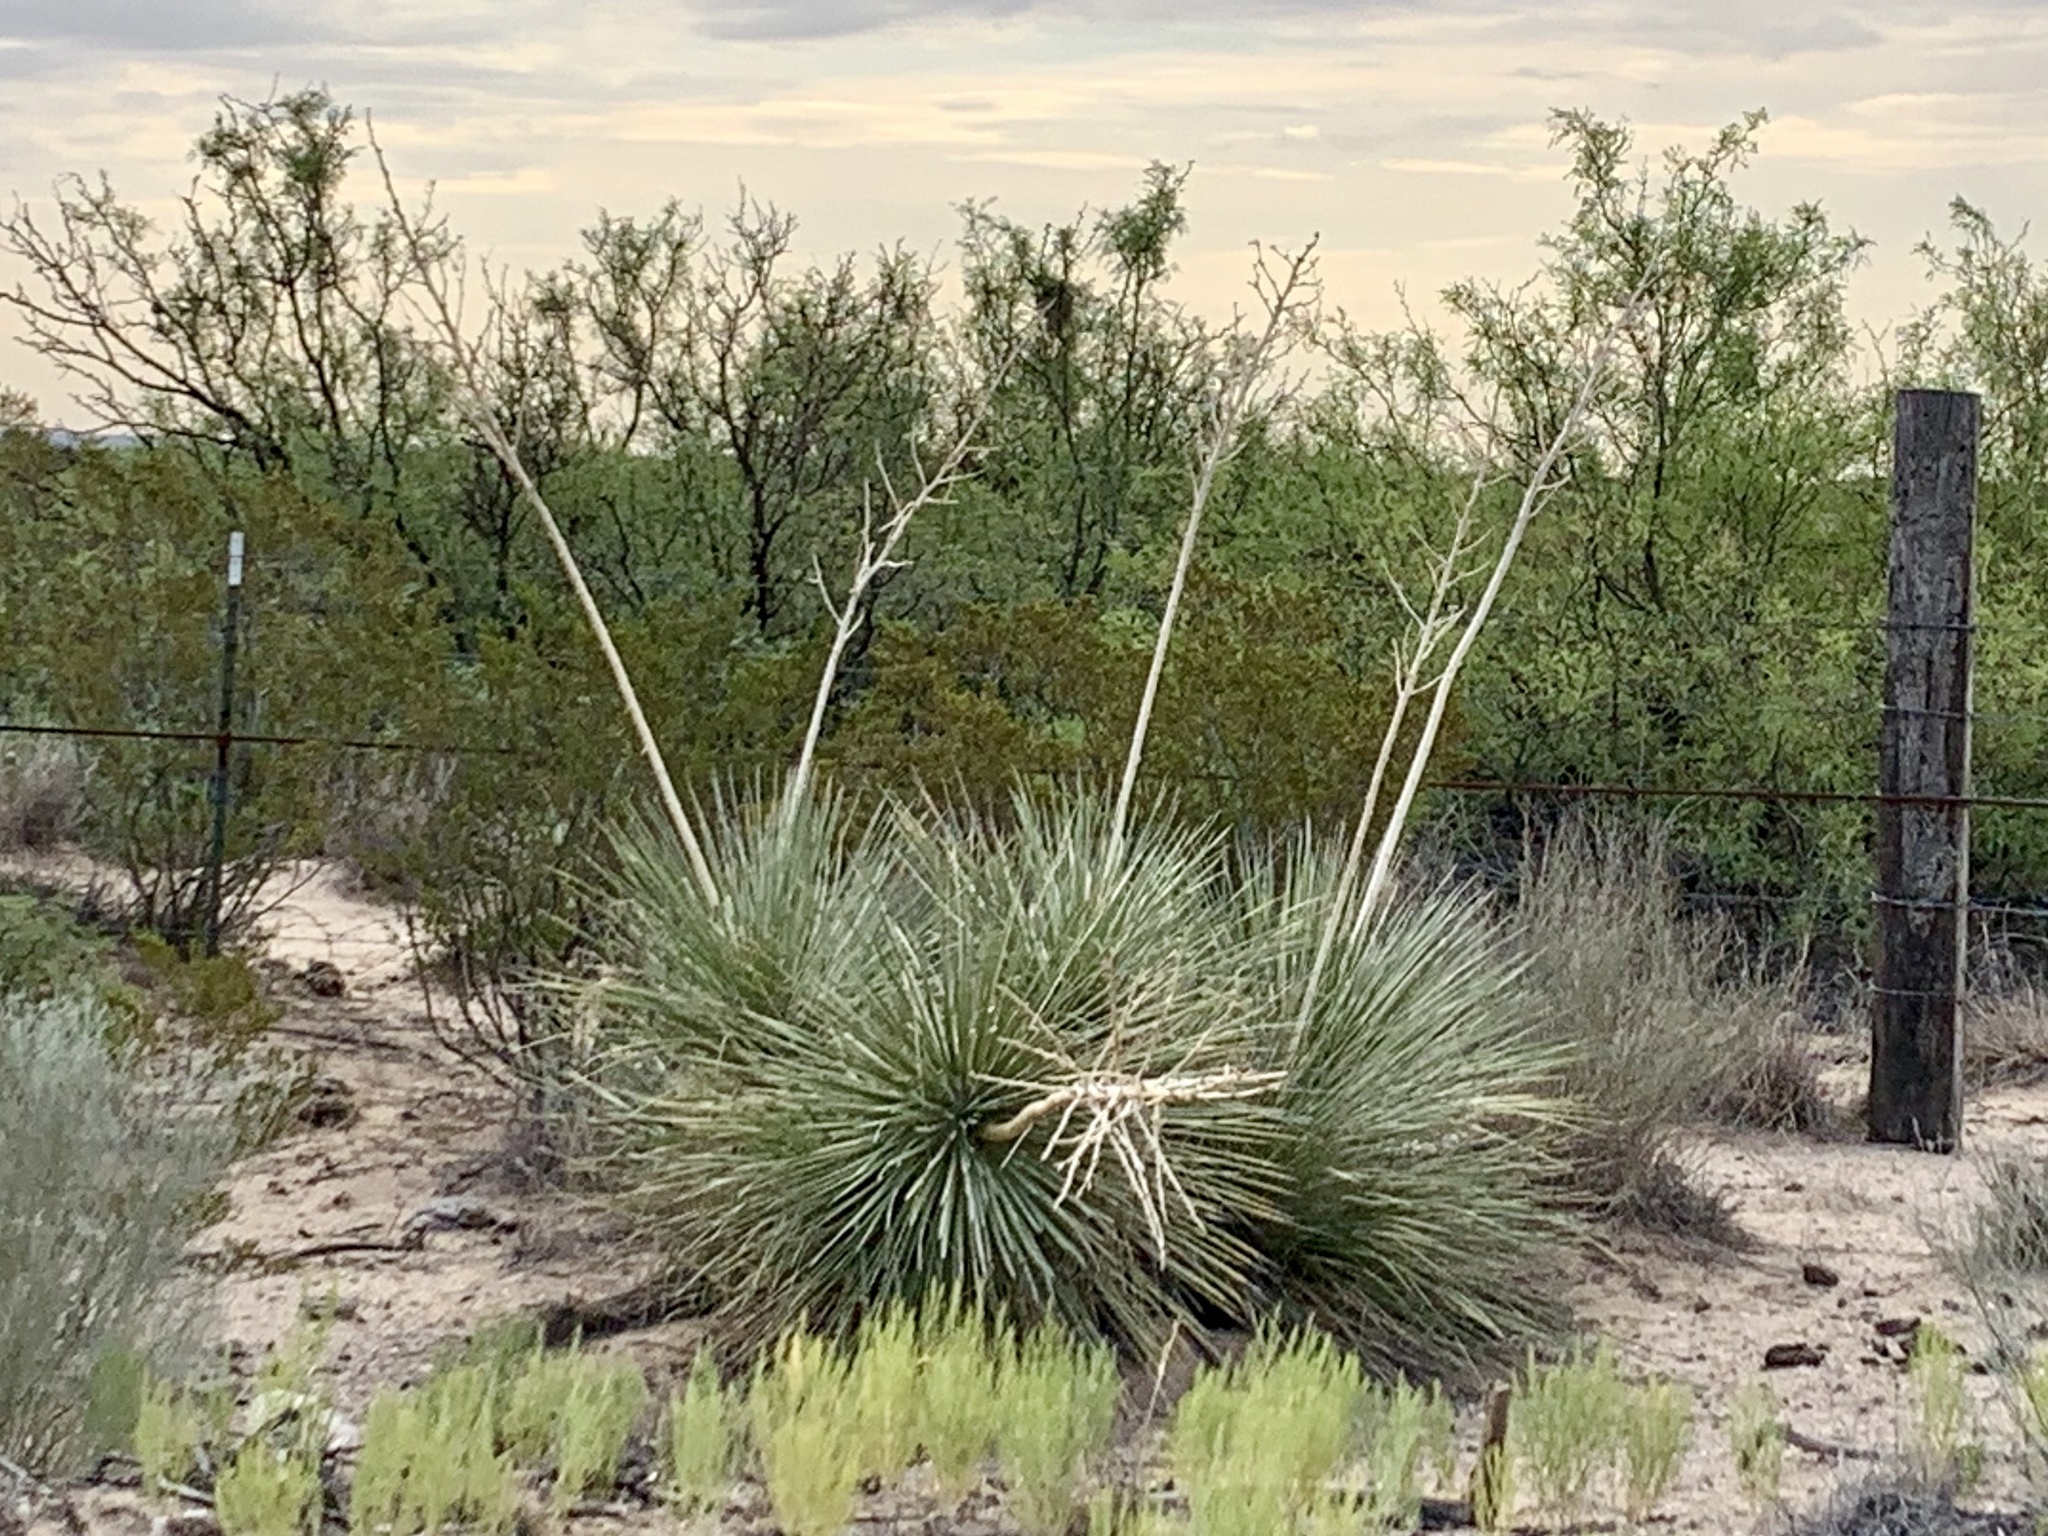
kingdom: Plantae
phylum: Tracheophyta
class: Liliopsida
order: Asparagales
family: Asparagaceae
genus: Yucca
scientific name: Yucca elata
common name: Palmella
